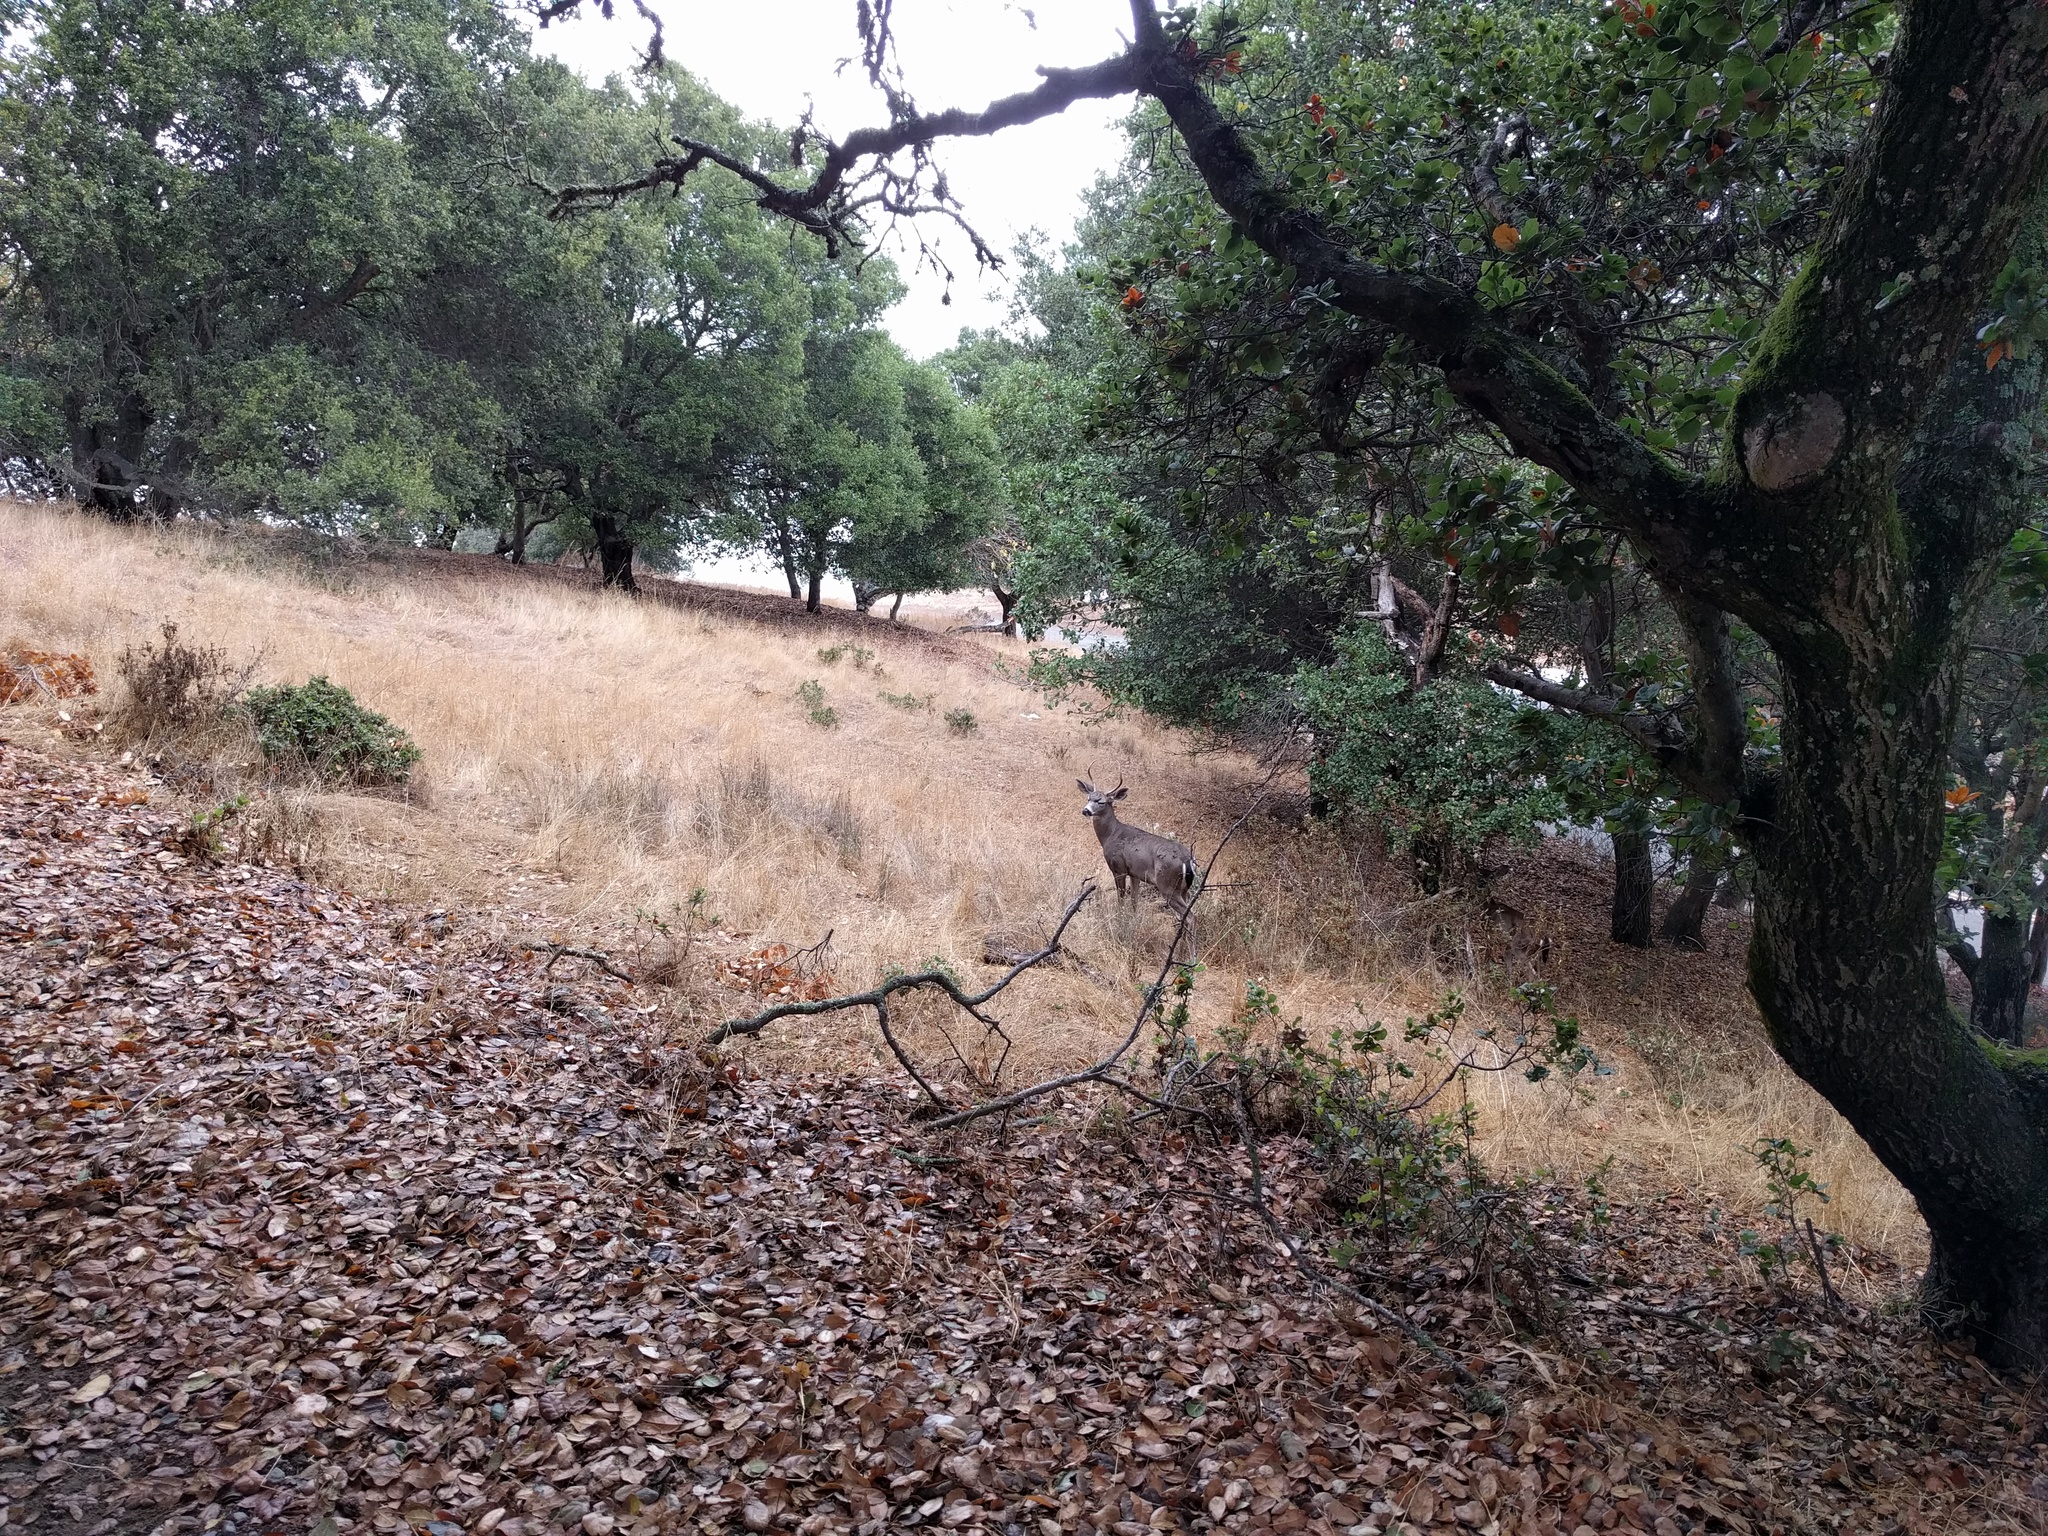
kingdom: Animalia
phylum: Chordata
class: Mammalia
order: Artiodactyla
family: Cervidae
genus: Odocoileus
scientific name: Odocoileus hemionus
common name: Mule deer
